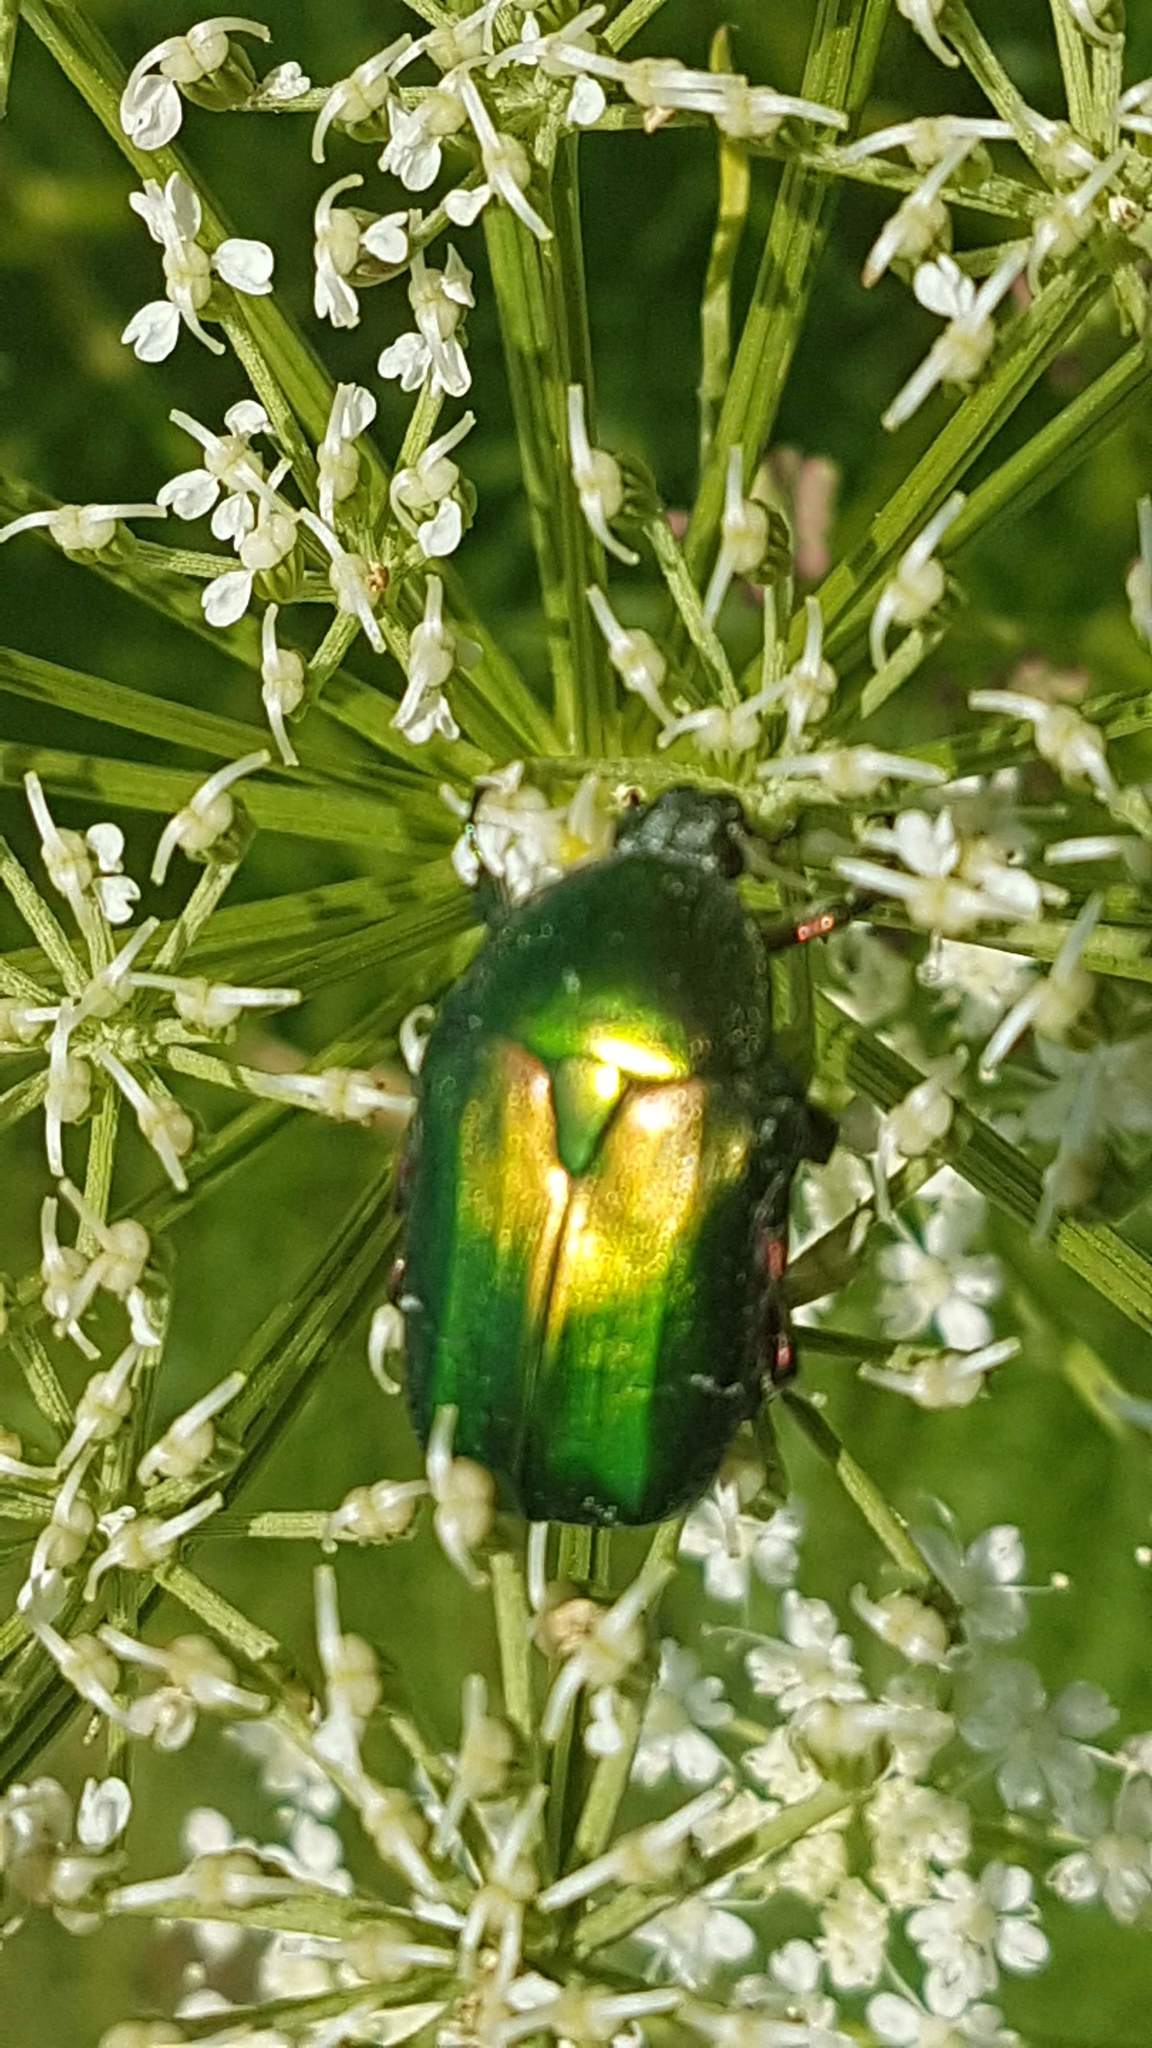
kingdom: Animalia
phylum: Arthropoda
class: Insecta
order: Coleoptera
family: Scarabaeidae
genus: Cetonia
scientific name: Cetonia aurata
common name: Rose chafer
